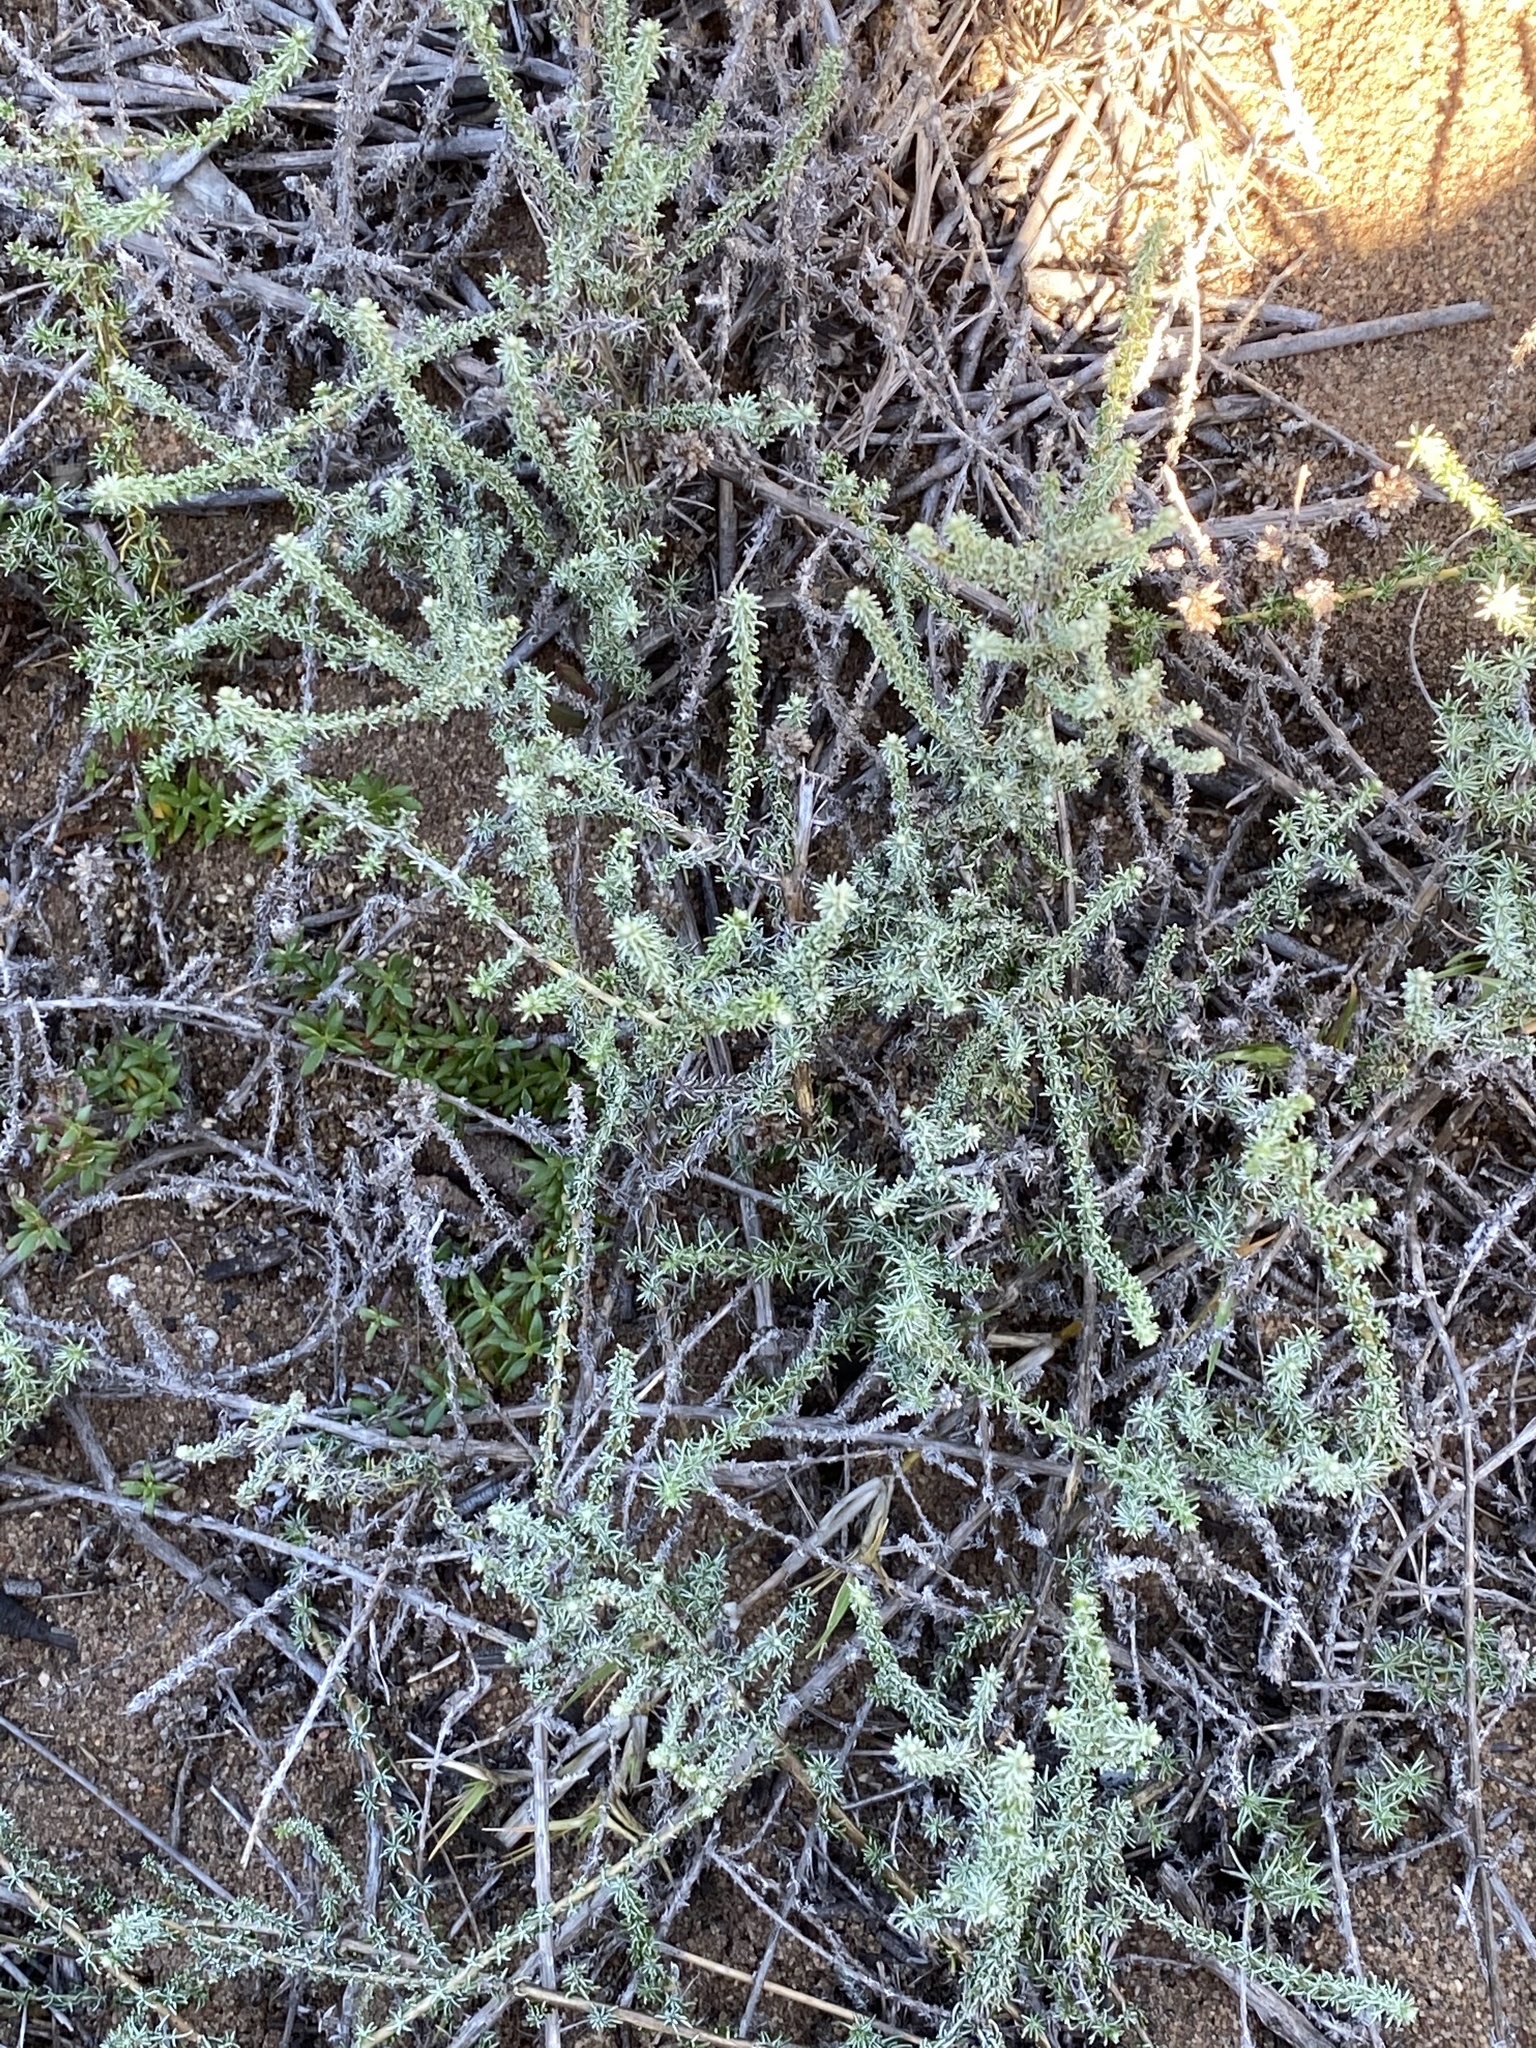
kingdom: Plantae
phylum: Tracheophyta
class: Magnoliopsida
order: Asterales
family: Asteraceae
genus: Ifloga
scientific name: Ifloga repens
